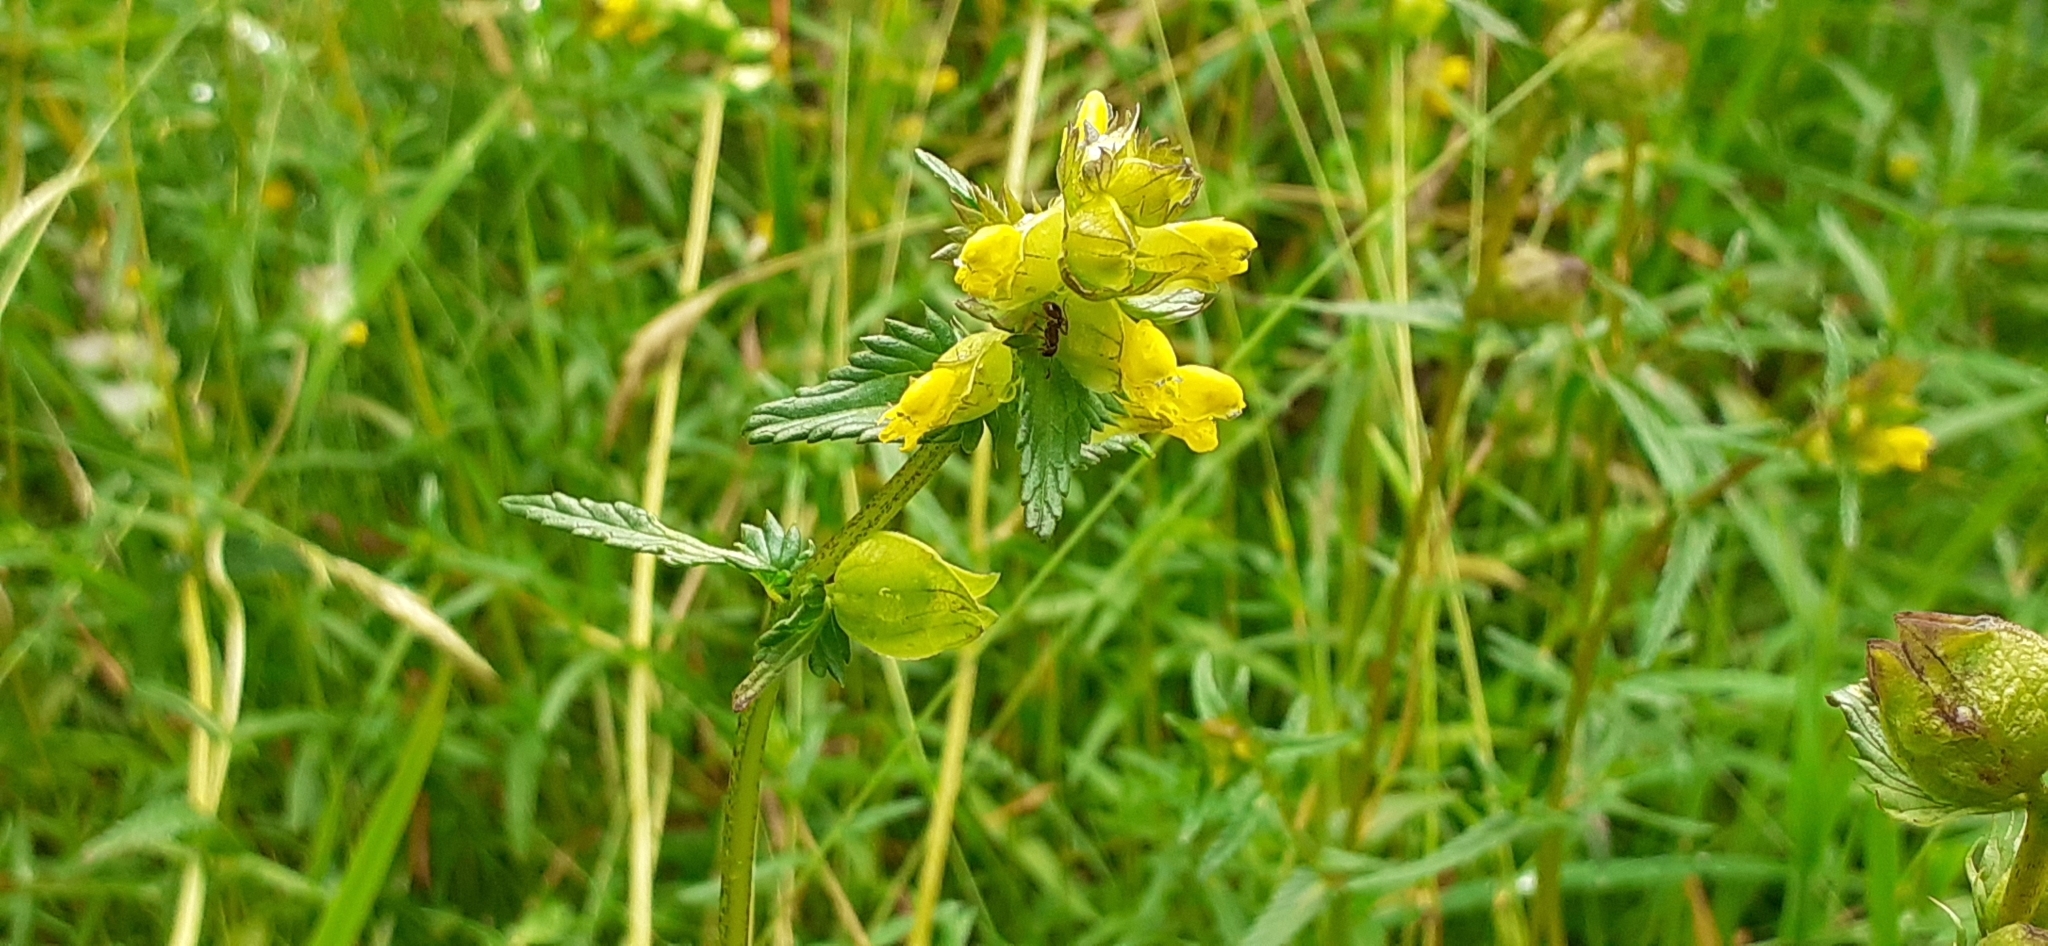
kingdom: Plantae
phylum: Tracheophyta
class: Magnoliopsida
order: Lamiales
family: Orobanchaceae
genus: Rhinanthus
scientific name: Rhinanthus minor
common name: Yellow-rattle
